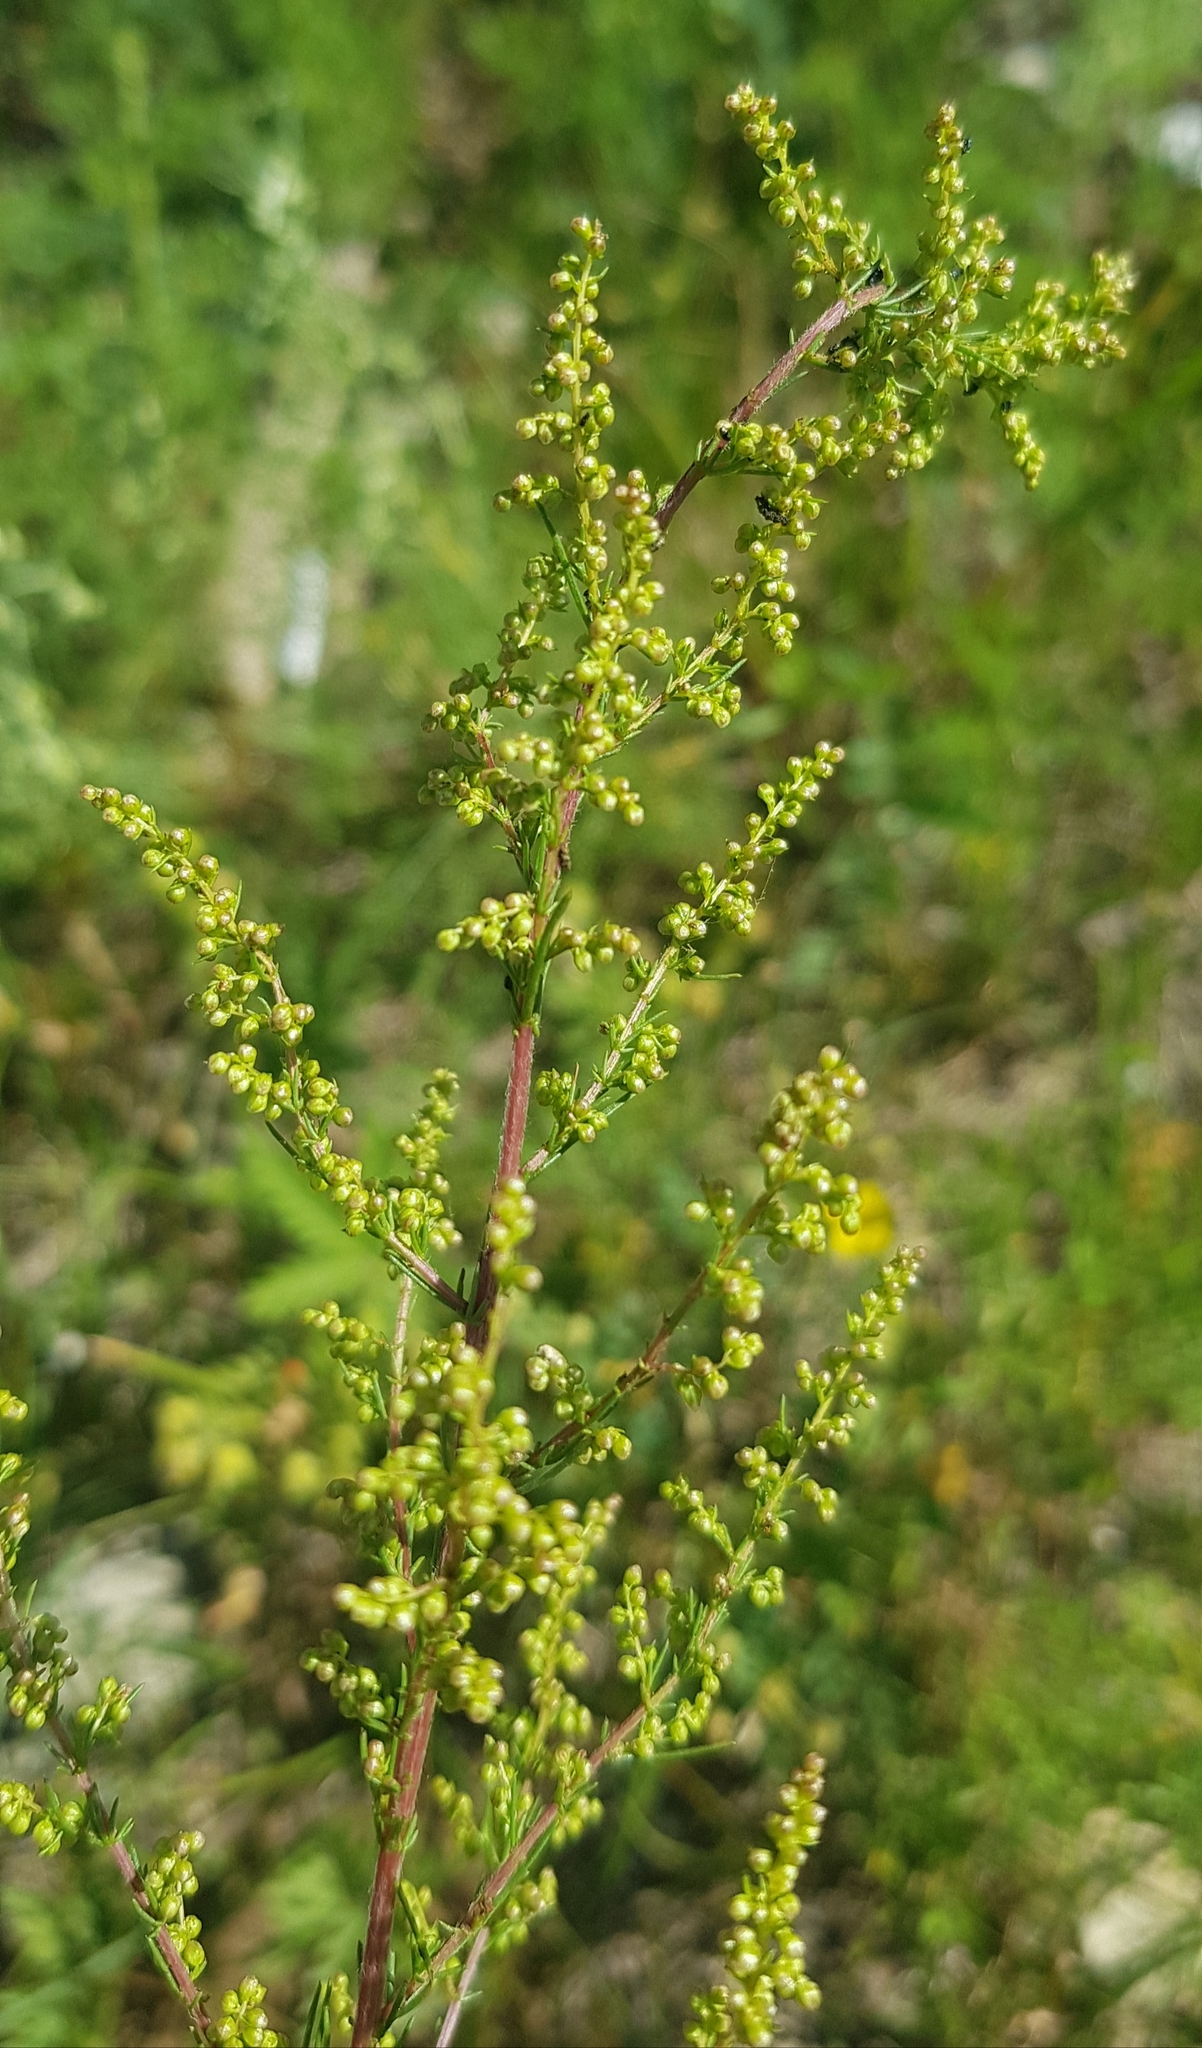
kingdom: Plantae
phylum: Tracheophyta
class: Magnoliopsida
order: Asterales
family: Asteraceae
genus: Artemisia
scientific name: Artemisia scoparia
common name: Redstem wormwood
